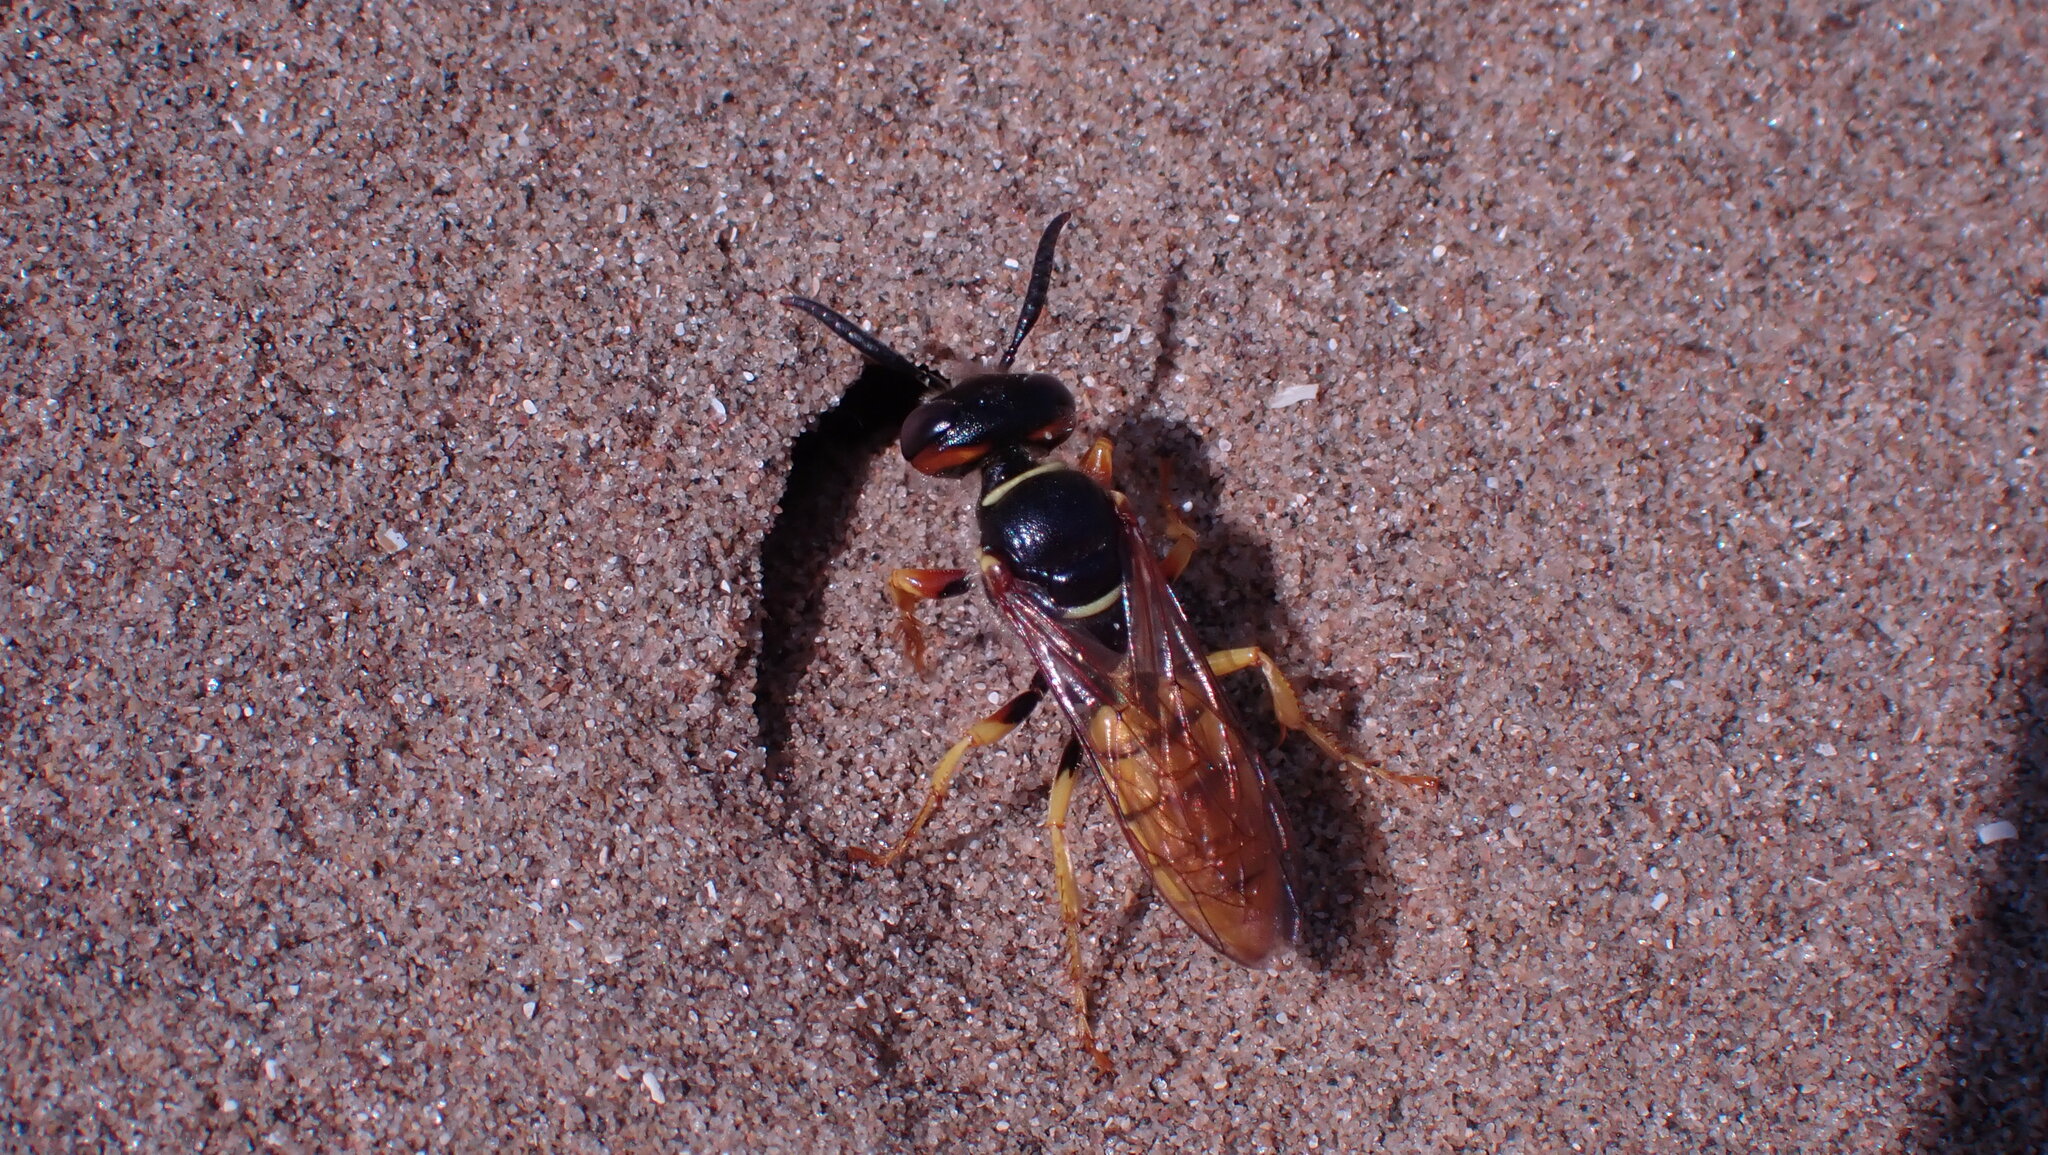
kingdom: Animalia
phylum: Arthropoda
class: Insecta
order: Hymenoptera
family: Crabronidae
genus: Philanthus
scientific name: Philanthus triangulum
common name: Bee wolf
